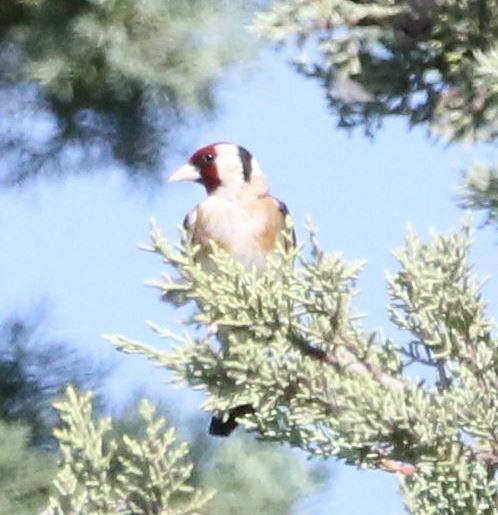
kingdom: Animalia
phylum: Chordata
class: Aves
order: Passeriformes
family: Fringillidae
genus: Carduelis
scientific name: Carduelis carduelis
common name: European goldfinch
